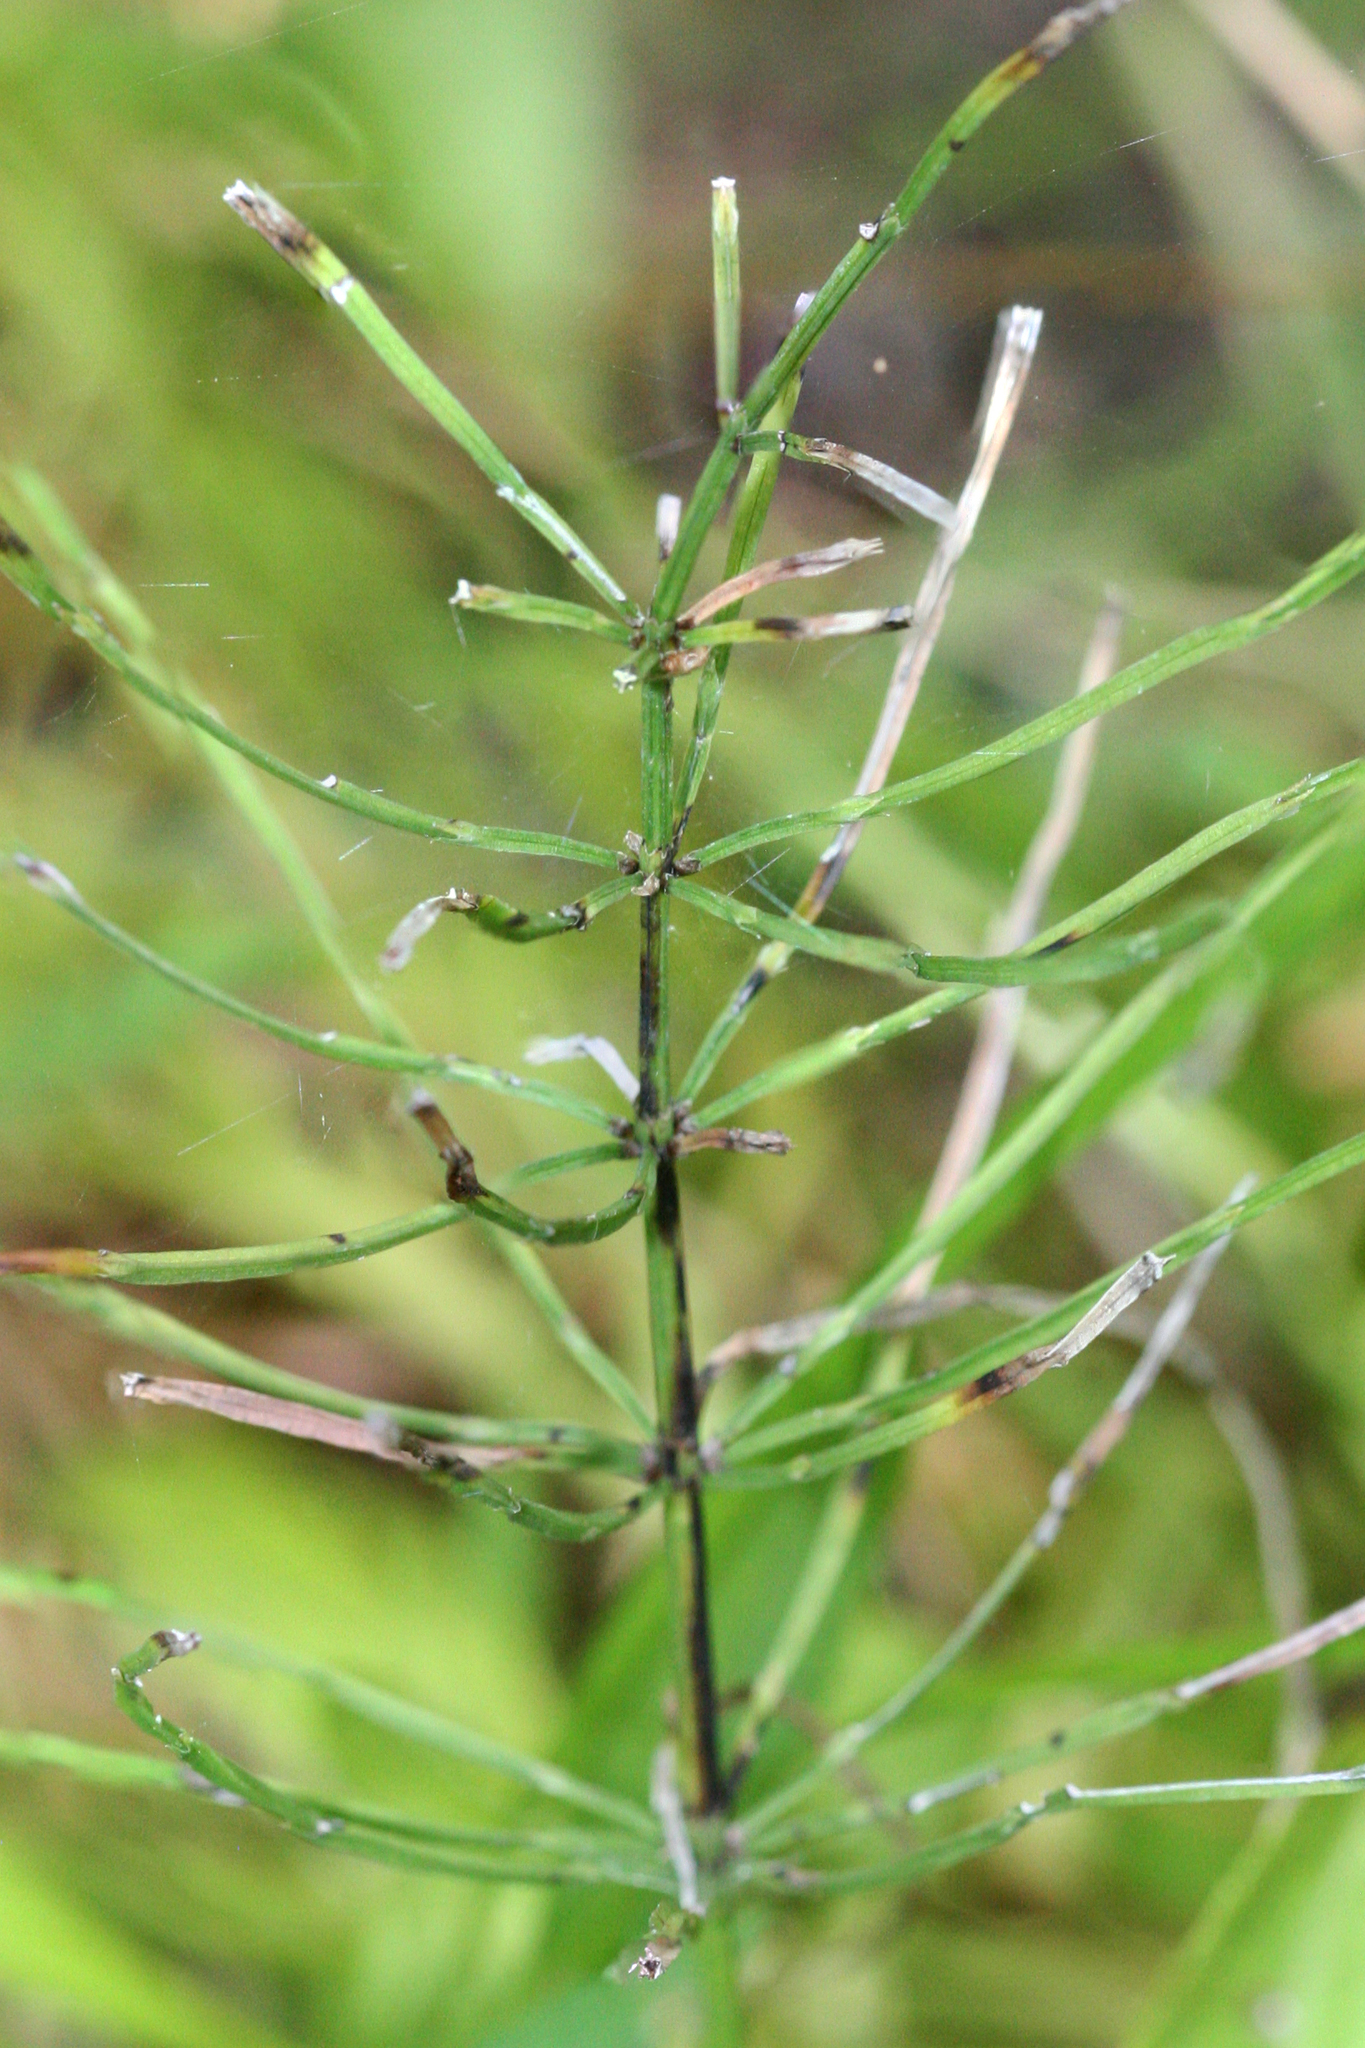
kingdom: Plantae
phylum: Tracheophyta
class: Polypodiopsida
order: Equisetales
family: Equisetaceae
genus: Equisetum
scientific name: Equisetum arvense
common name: Field horsetail
